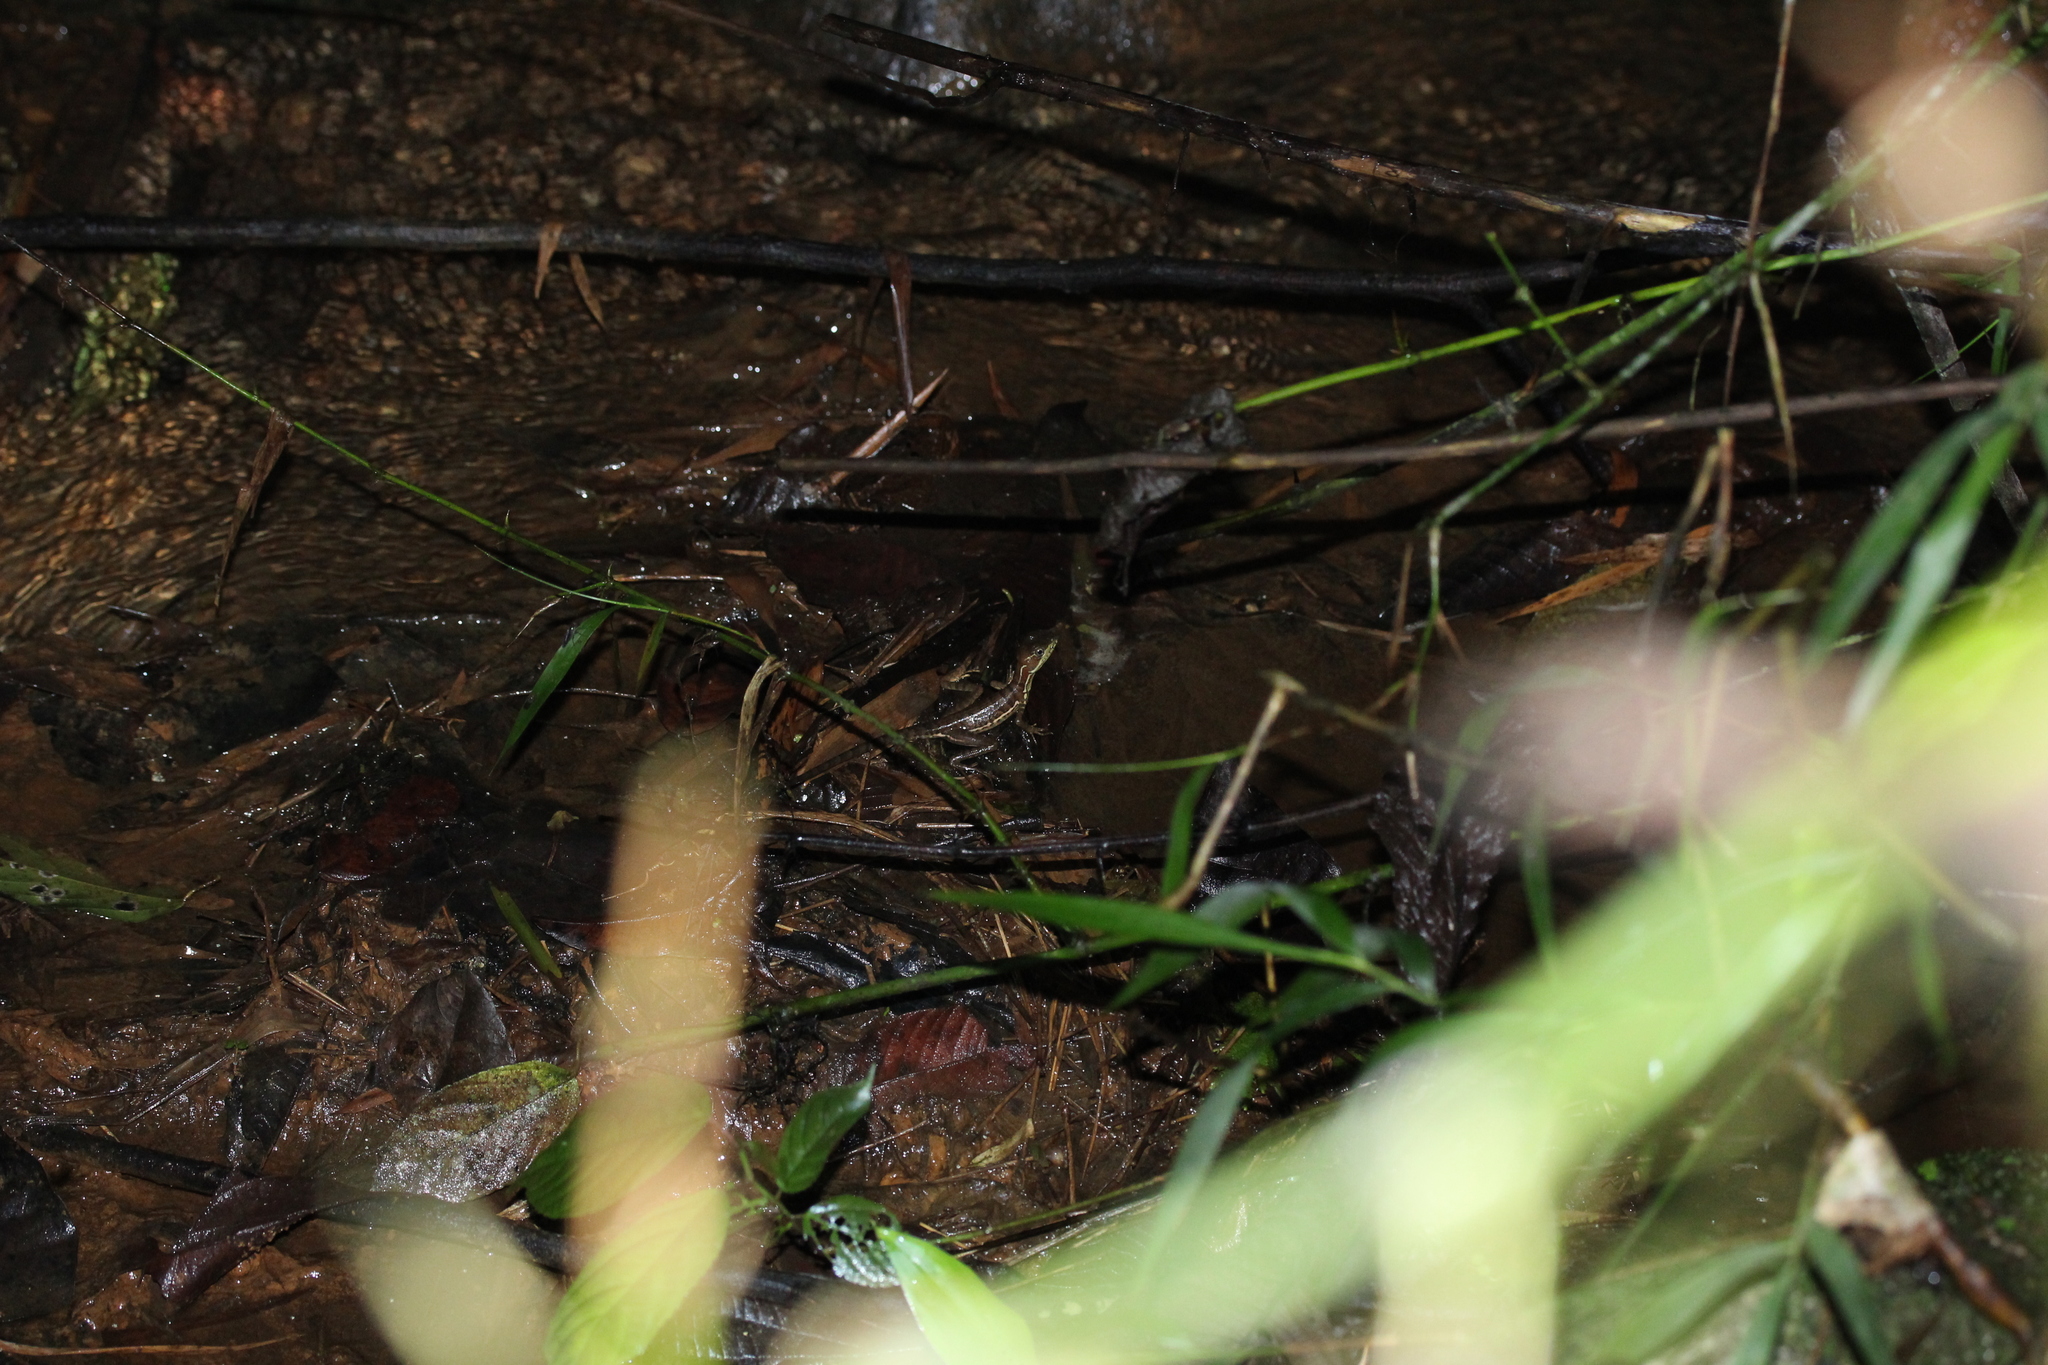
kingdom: Animalia
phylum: Chordata
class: Squamata
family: Corytophanidae
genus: Basiliscus
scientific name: Basiliscus galeritus
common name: Western basilisk
